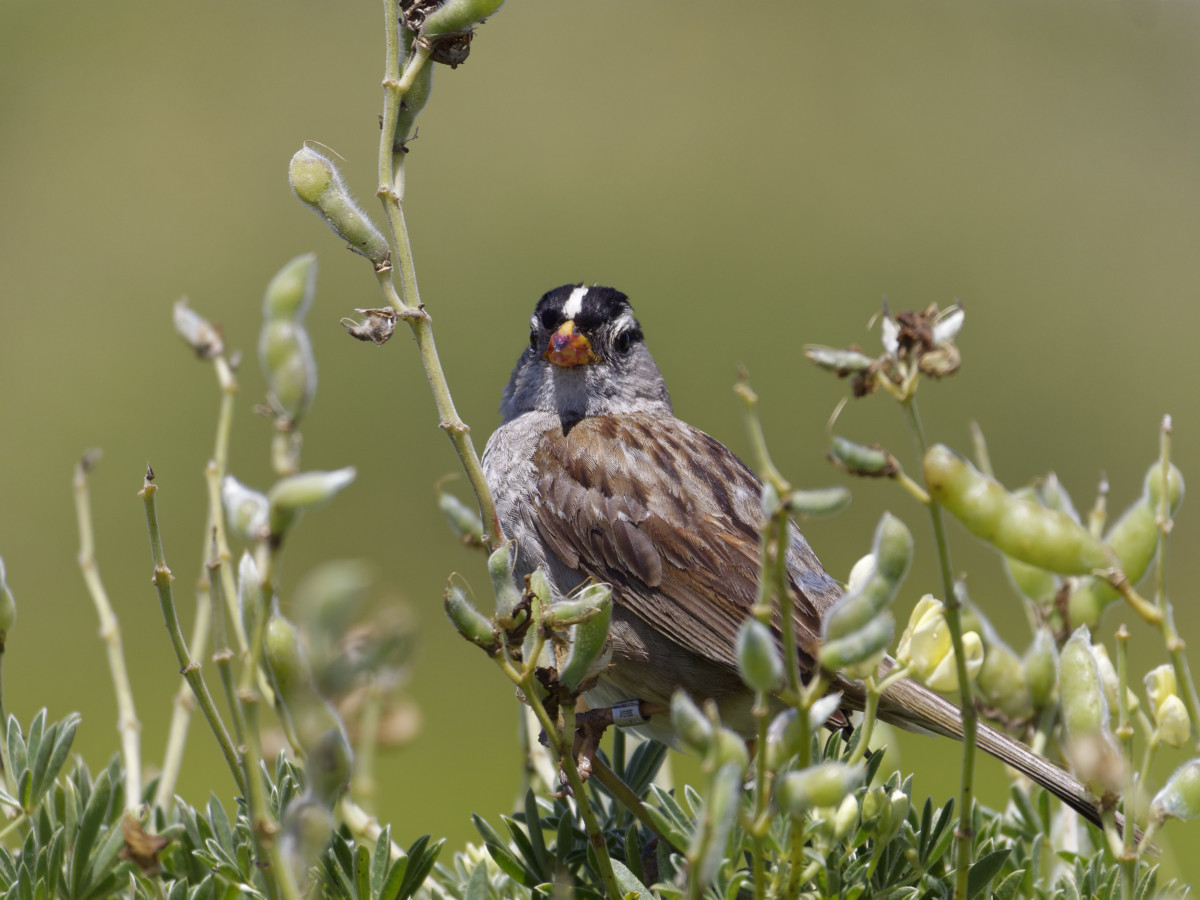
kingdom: Animalia
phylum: Chordata
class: Aves
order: Passeriformes
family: Passerellidae
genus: Zonotrichia
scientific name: Zonotrichia leucophrys
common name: White-crowned sparrow
